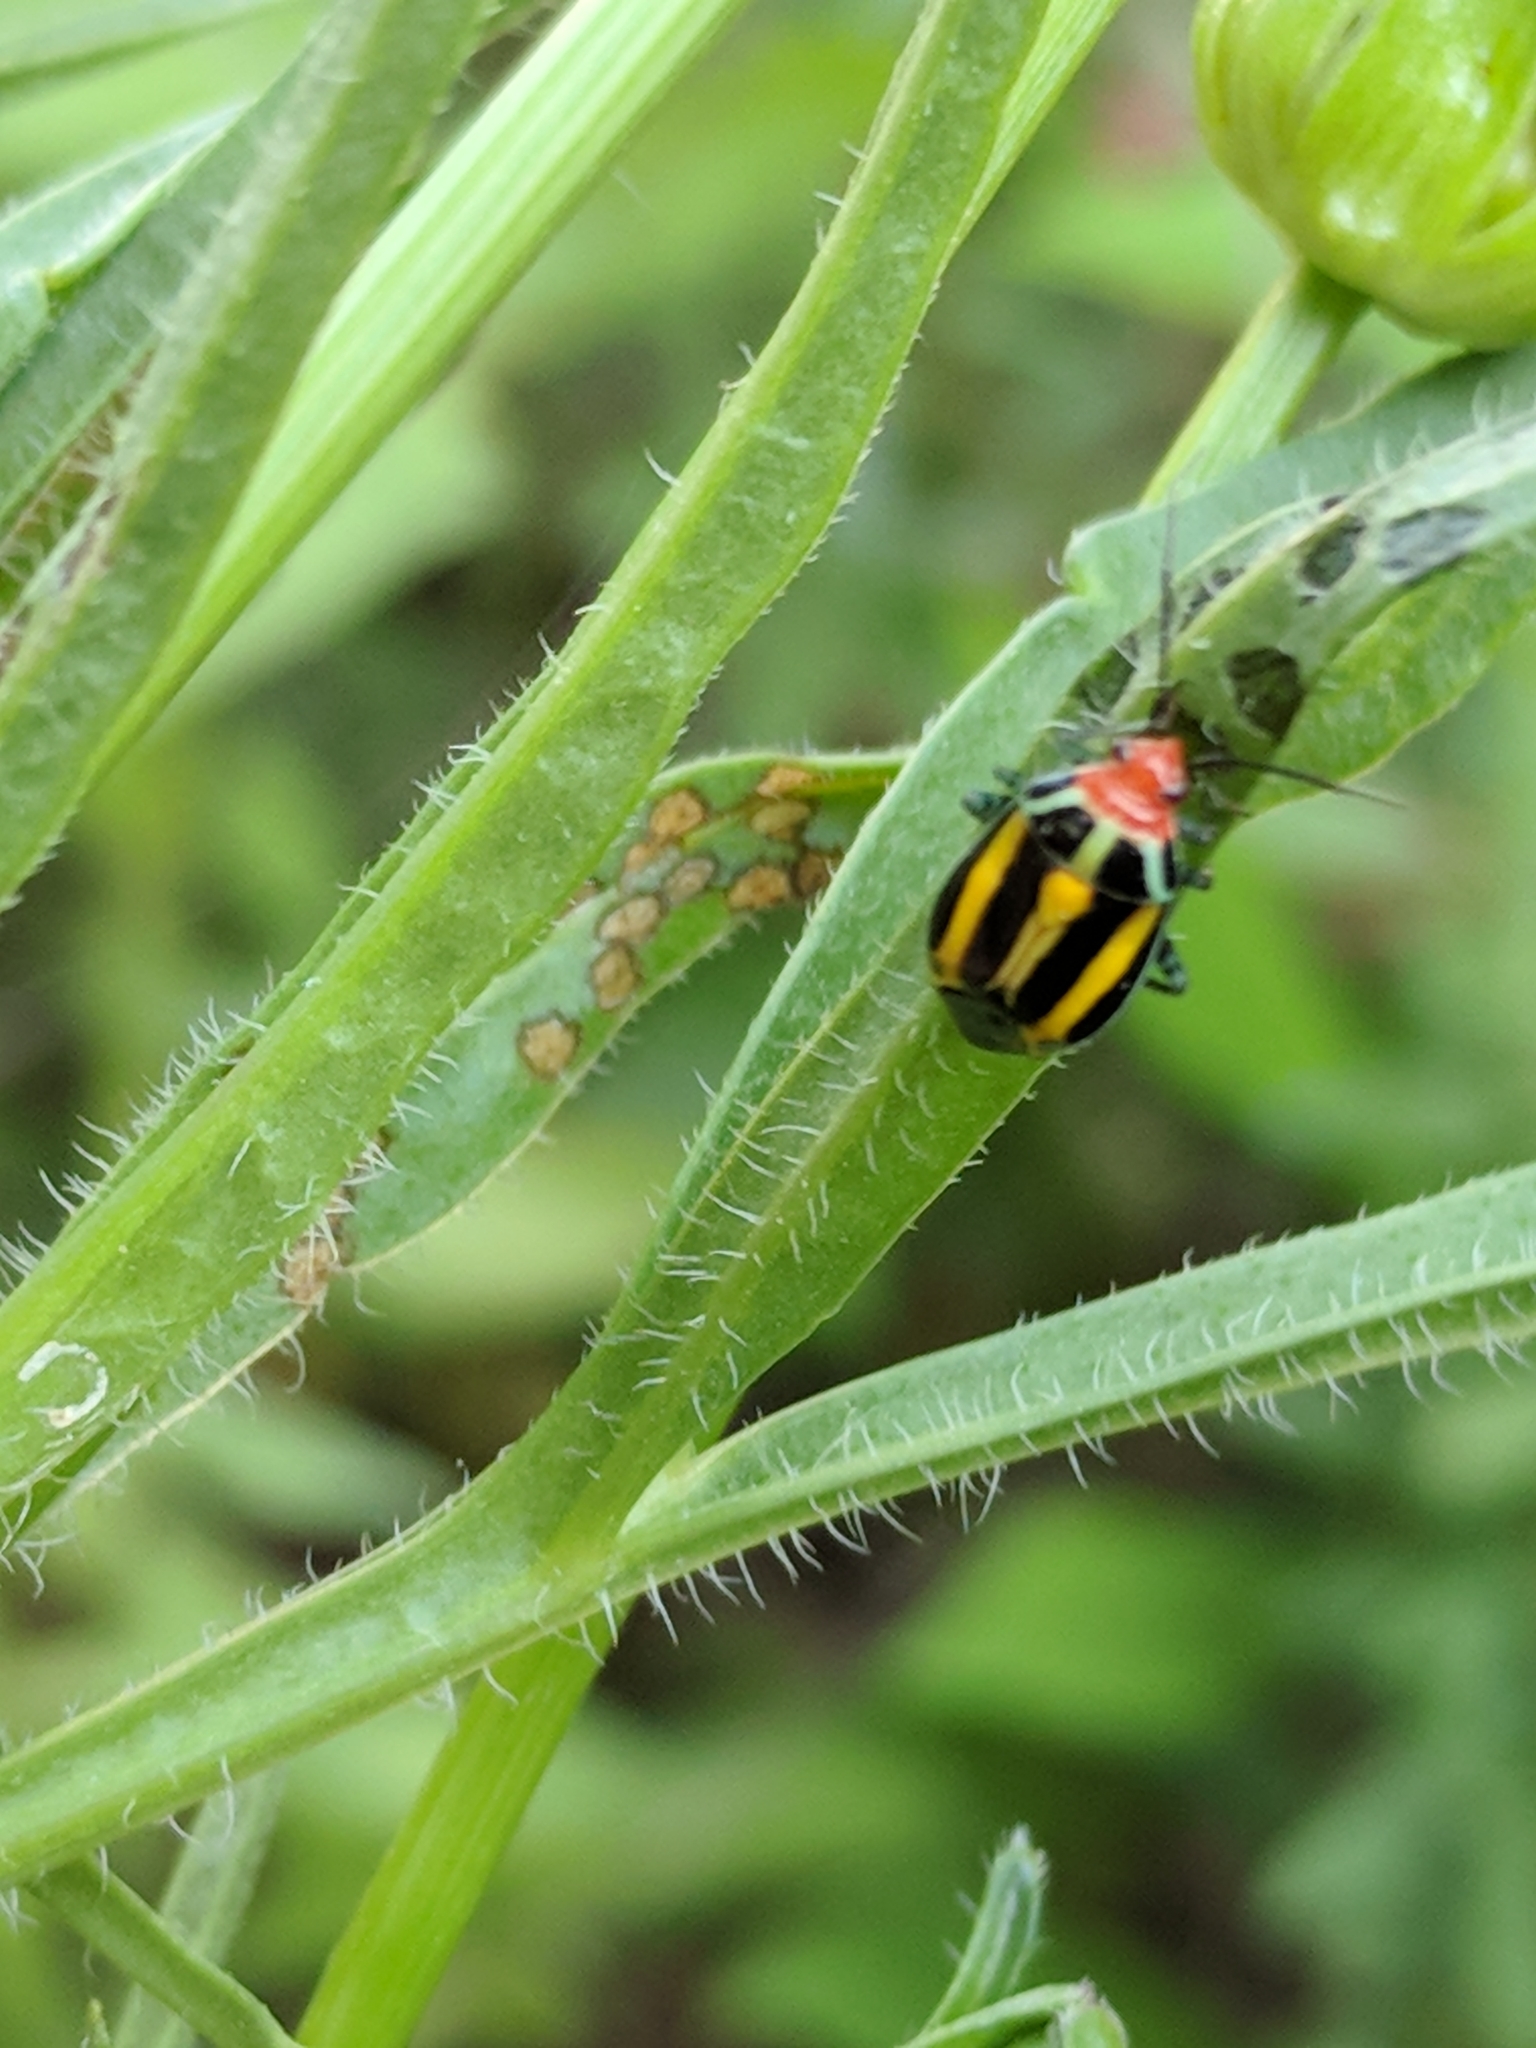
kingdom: Animalia
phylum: Arthropoda
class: Insecta
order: Hemiptera
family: Miridae
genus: Poecilocapsus
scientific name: Poecilocapsus lineatus
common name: Four-lined plant bug
